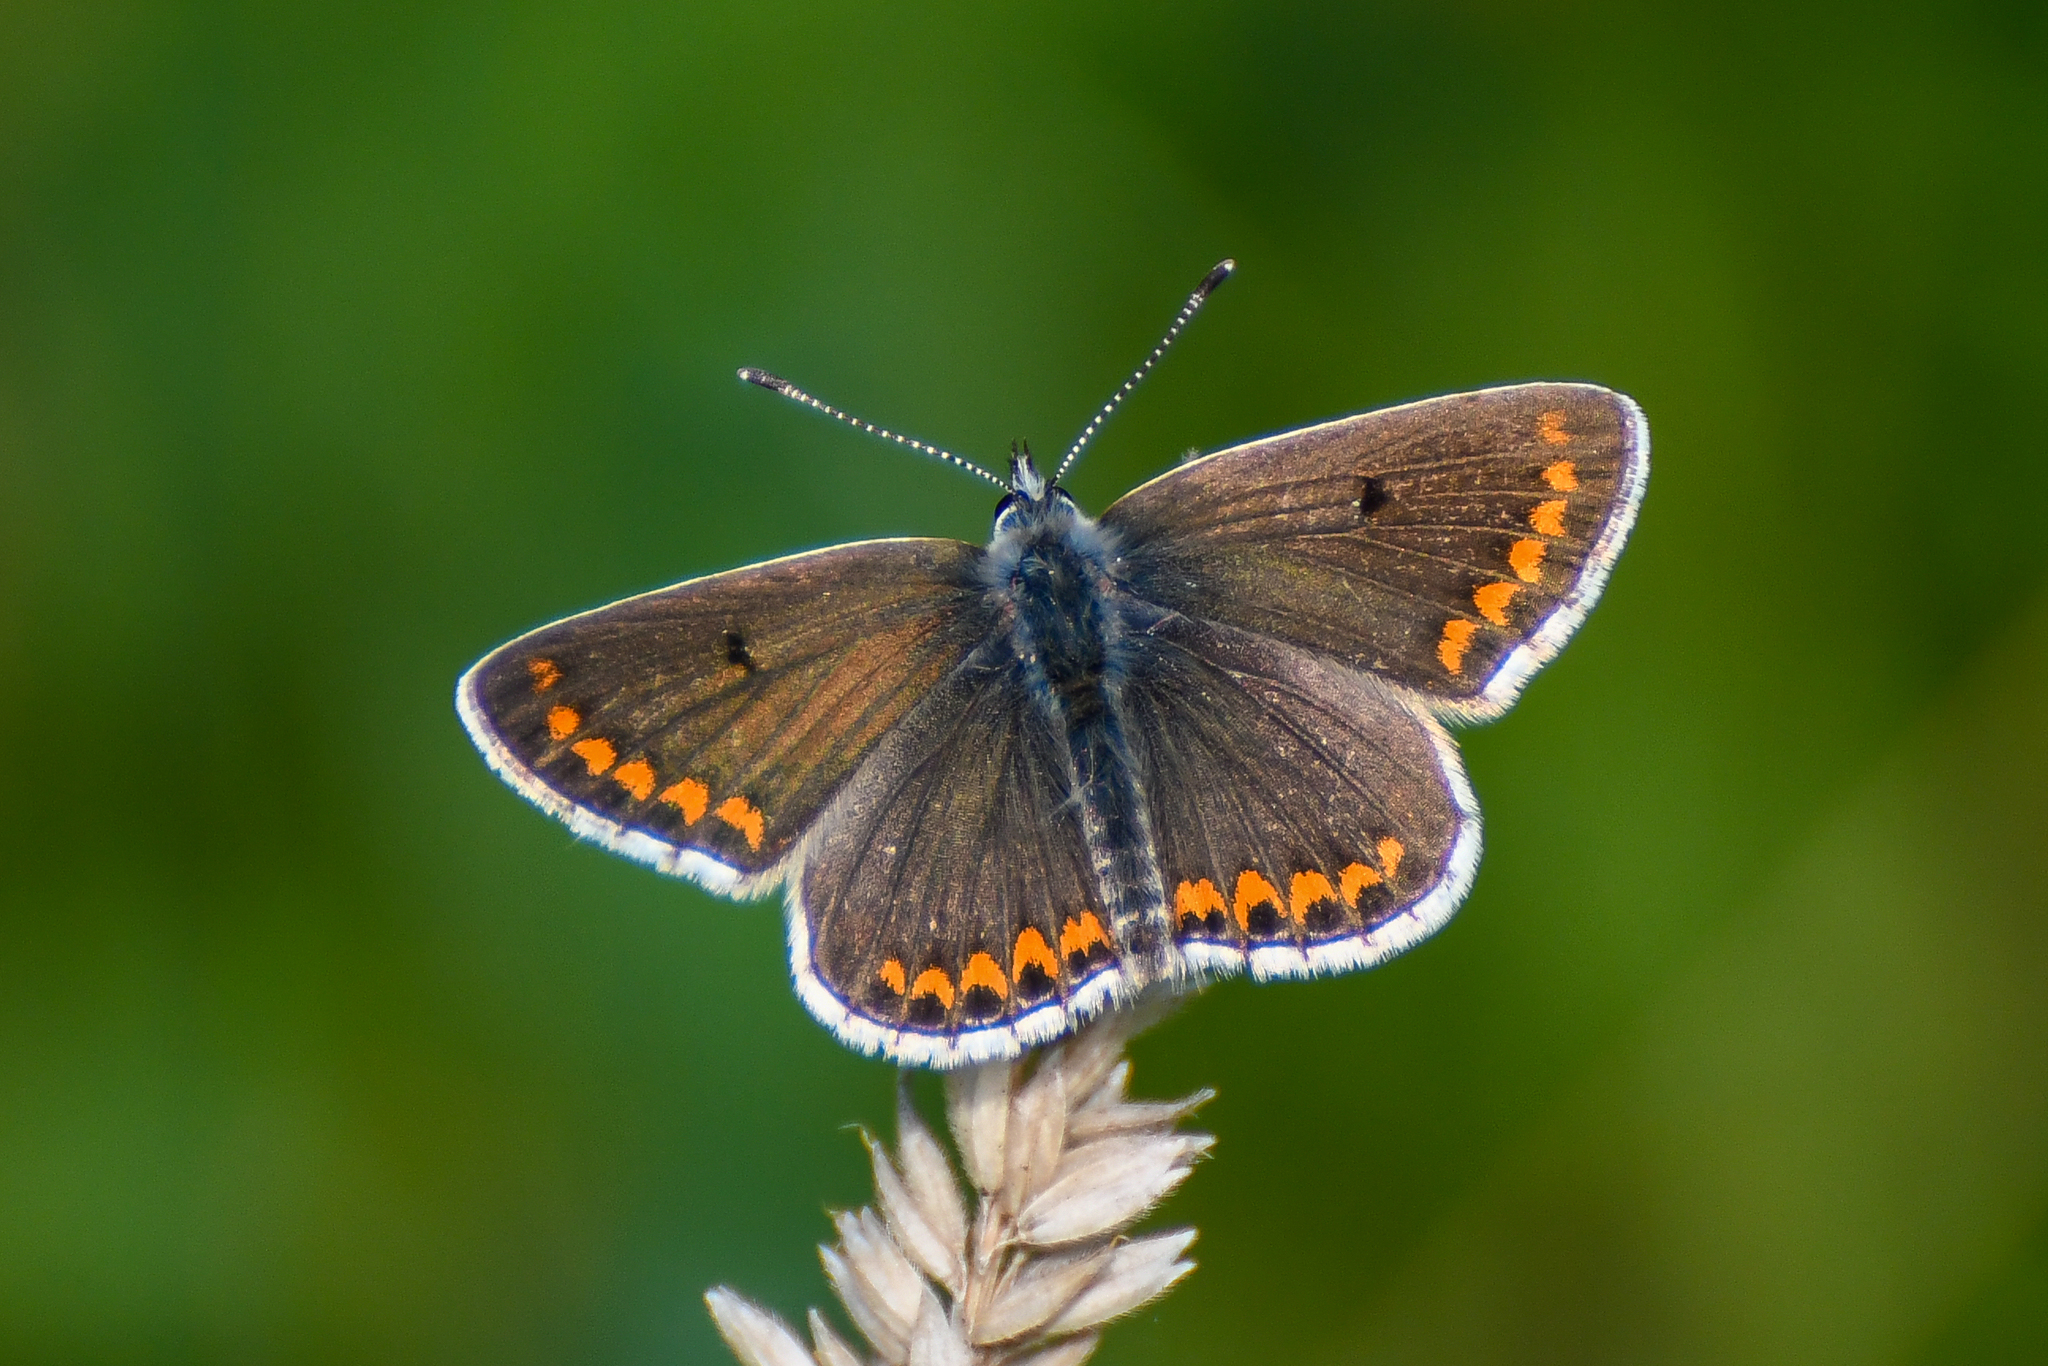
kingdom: Animalia
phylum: Arthropoda
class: Insecta
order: Lepidoptera
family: Lycaenidae
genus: Aricia
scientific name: Aricia agestis
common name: Brown argus
